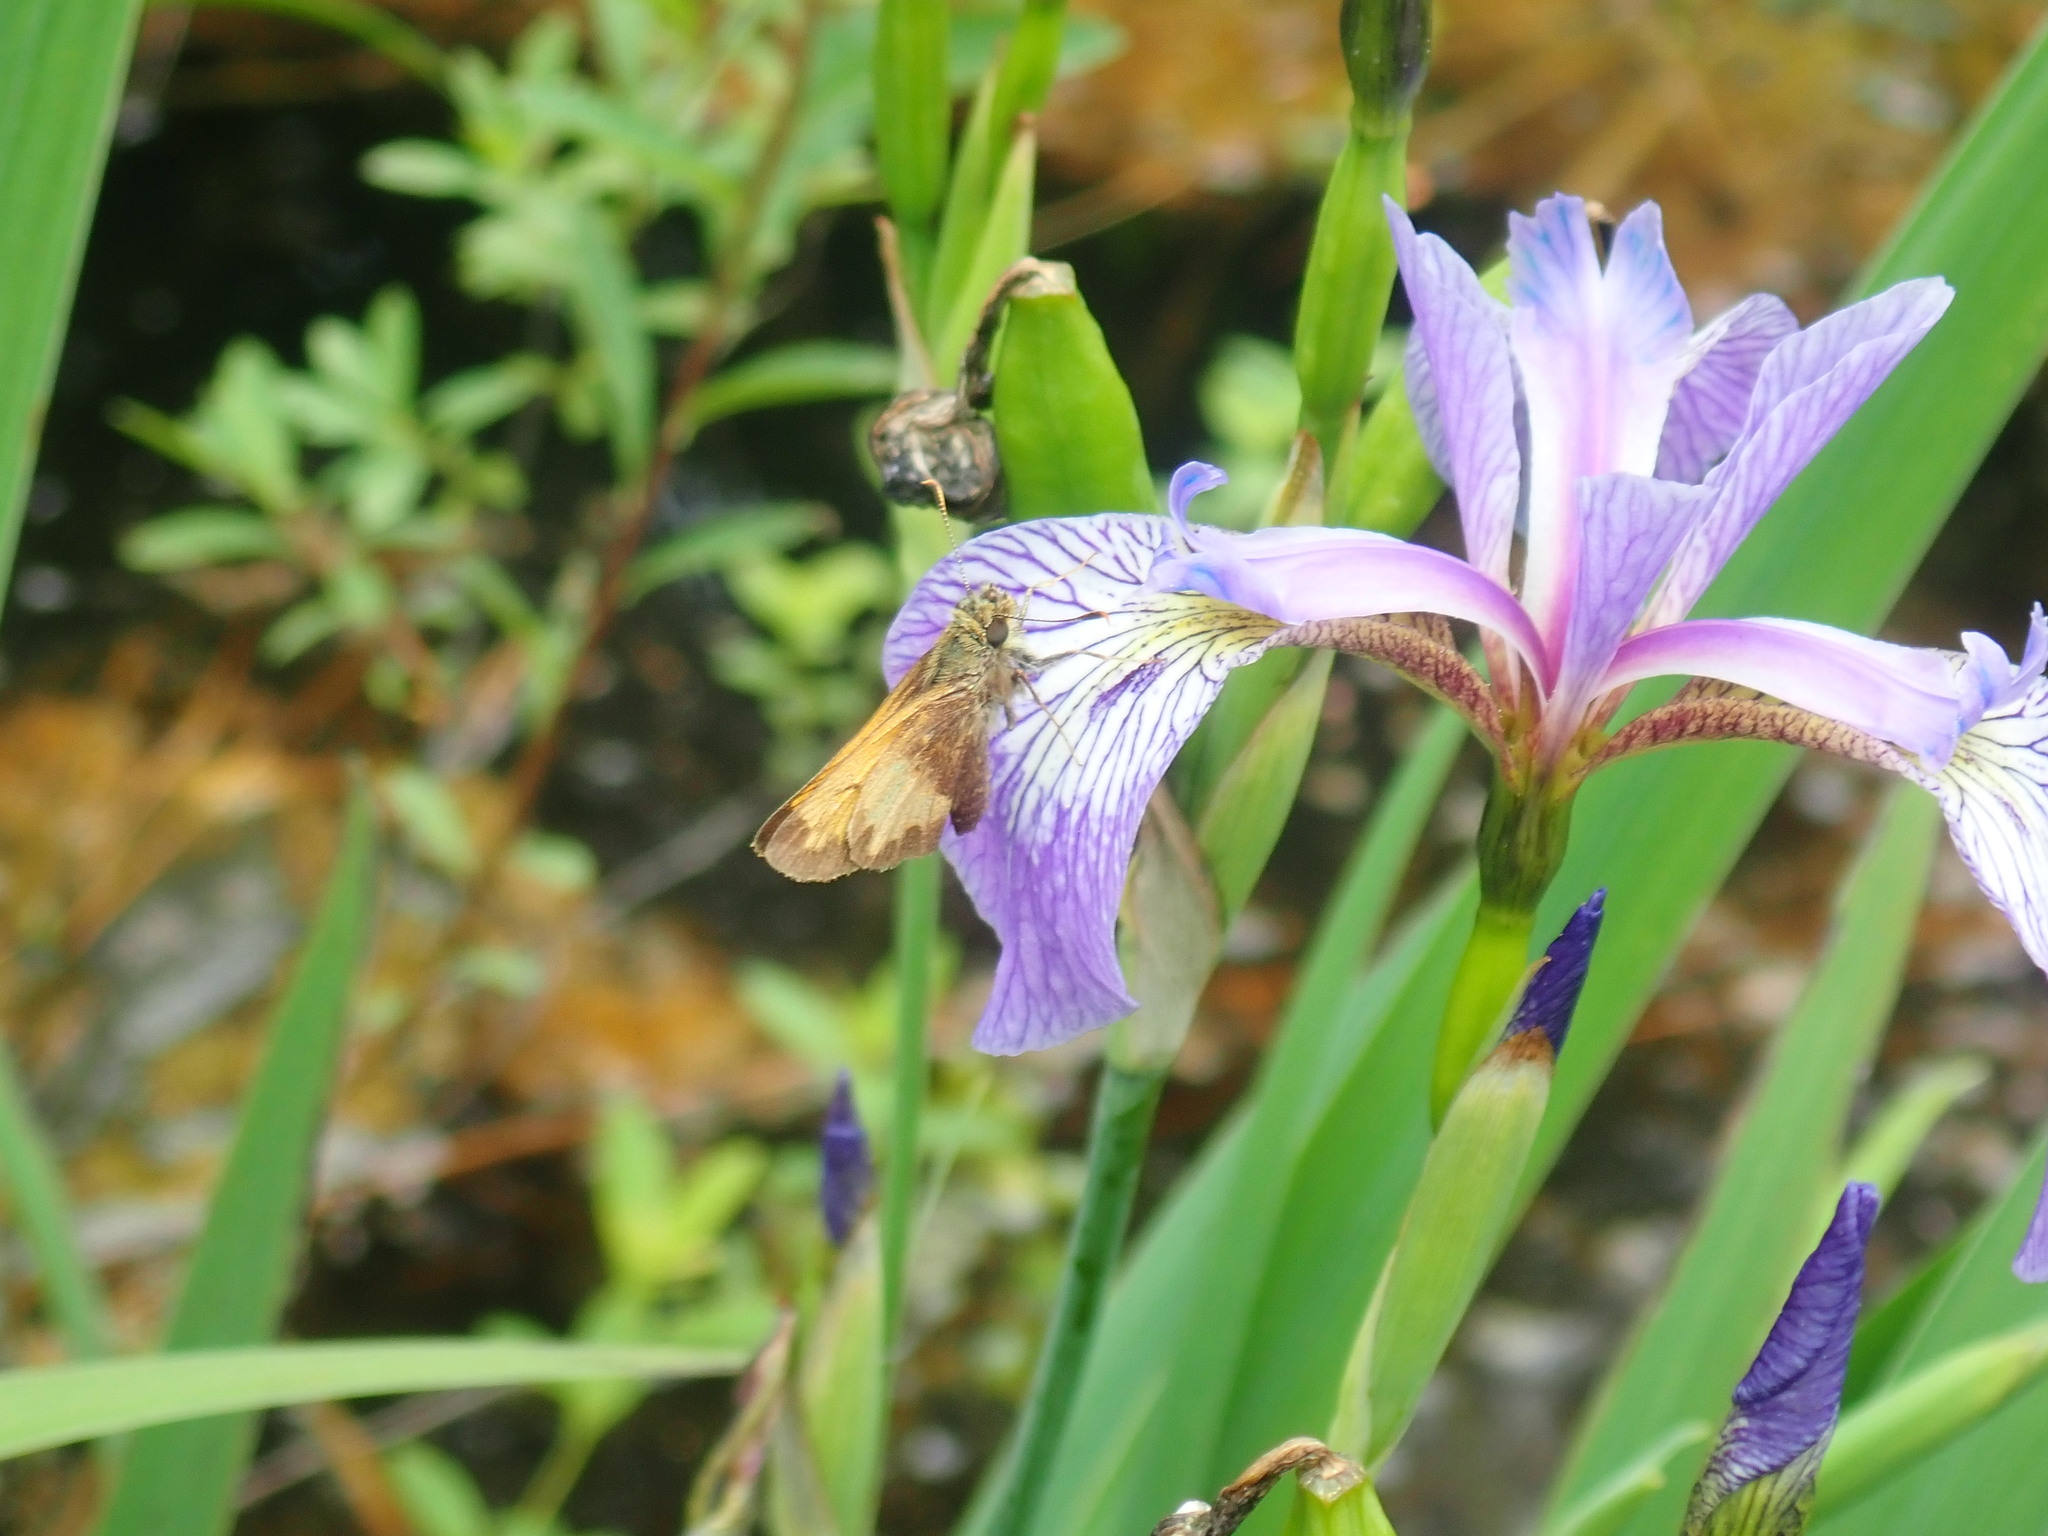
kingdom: Animalia
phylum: Arthropoda
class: Insecta
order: Lepidoptera
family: Hesperiidae
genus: Lon
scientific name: Lon hobomok
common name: Hobomok skipper
